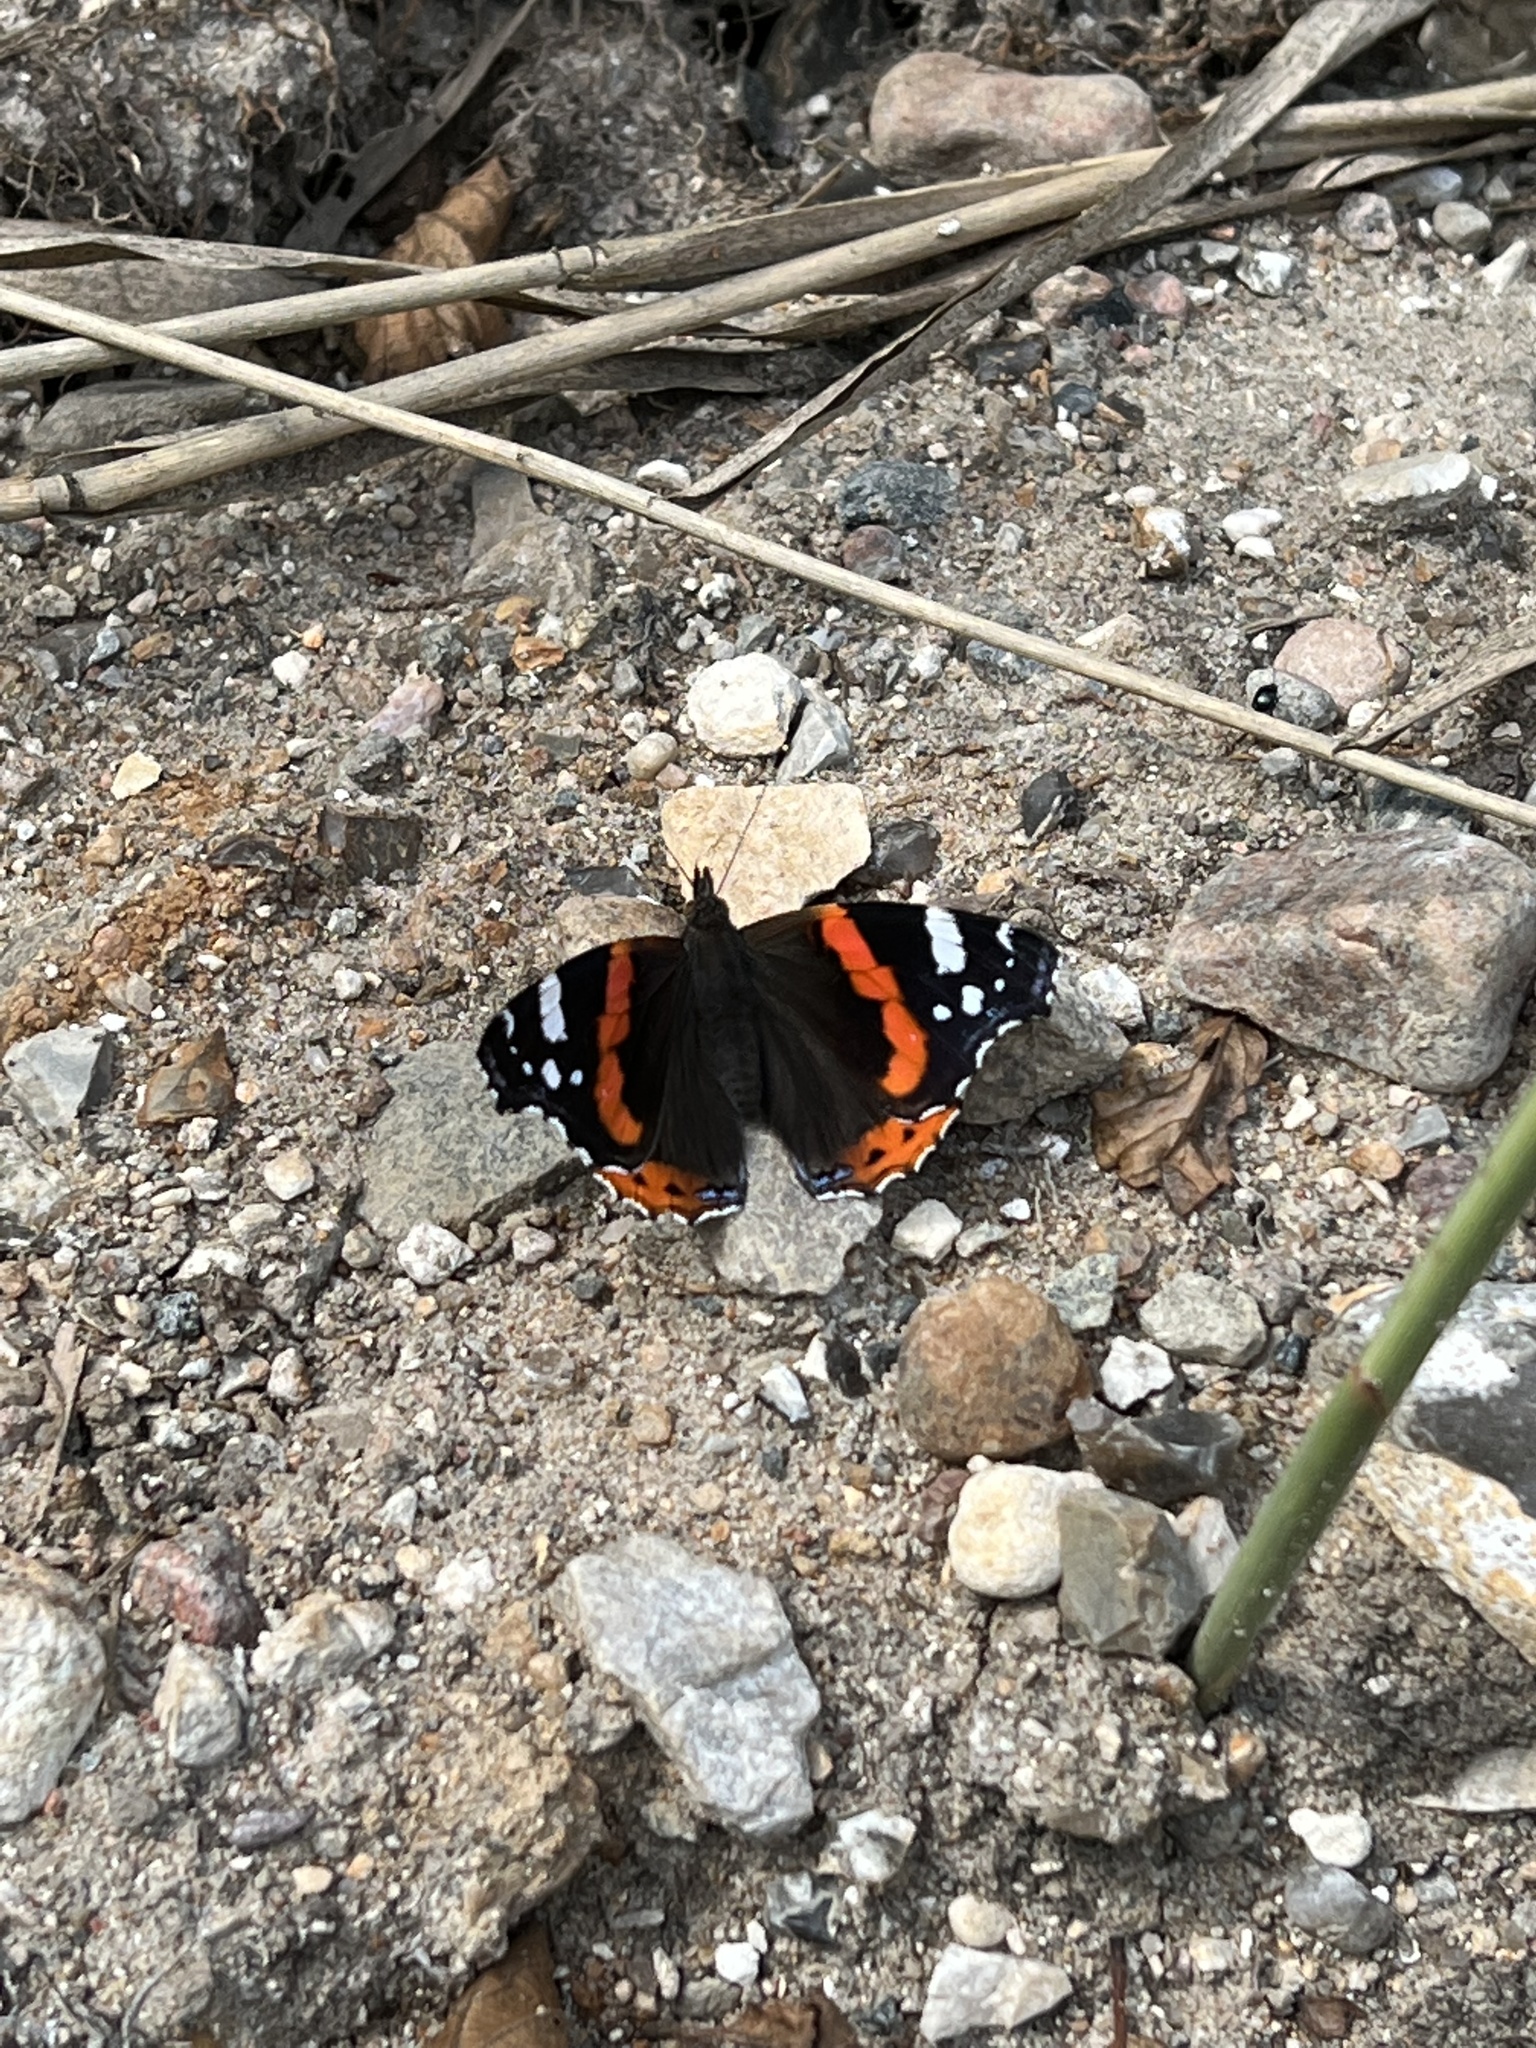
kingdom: Animalia
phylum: Arthropoda
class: Insecta
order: Lepidoptera
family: Nymphalidae
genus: Vanessa
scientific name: Vanessa atalanta
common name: Red admiral
